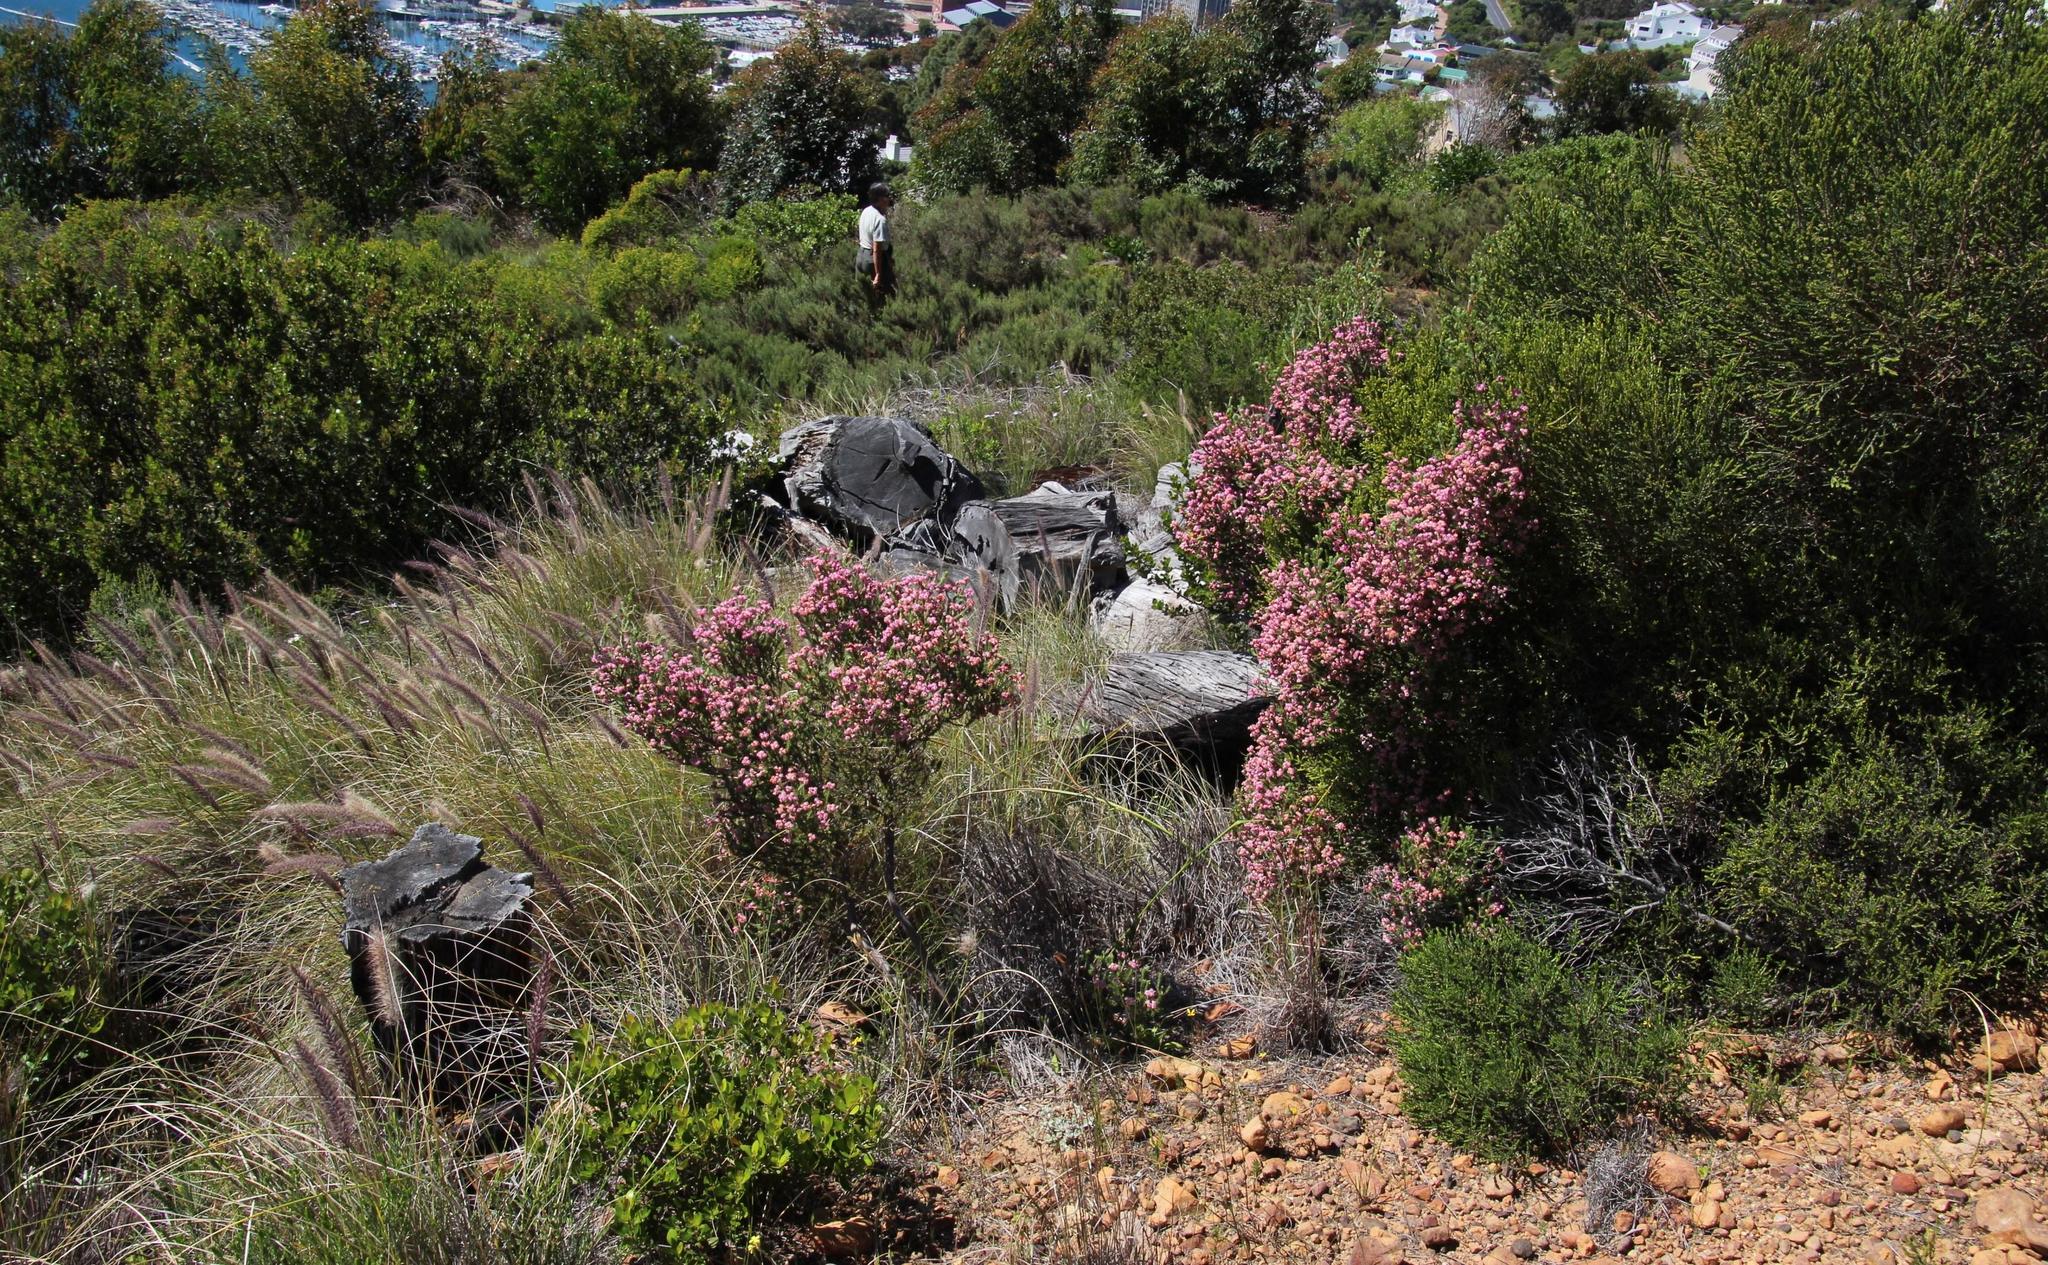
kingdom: Plantae
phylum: Tracheophyta
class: Magnoliopsida
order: Ericales
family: Ericaceae
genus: Erica
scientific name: Erica baccans
